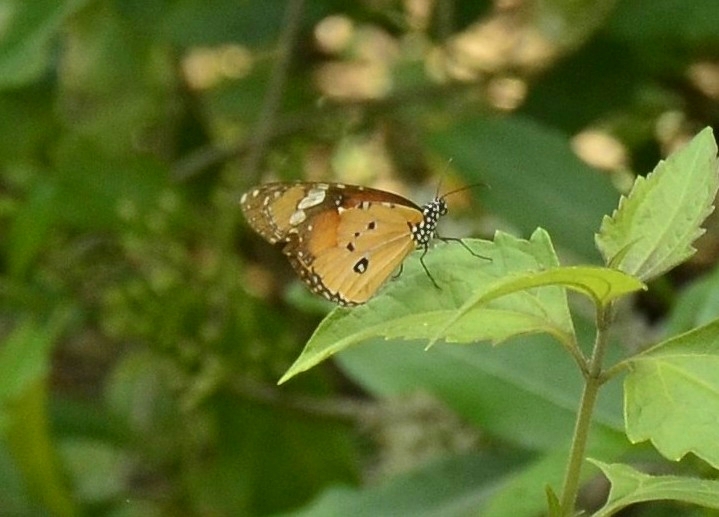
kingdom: Animalia
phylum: Arthropoda
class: Insecta
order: Lepidoptera
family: Nymphalidae
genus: Danaus
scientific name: Danaus chrysippus
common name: Plain tiger
